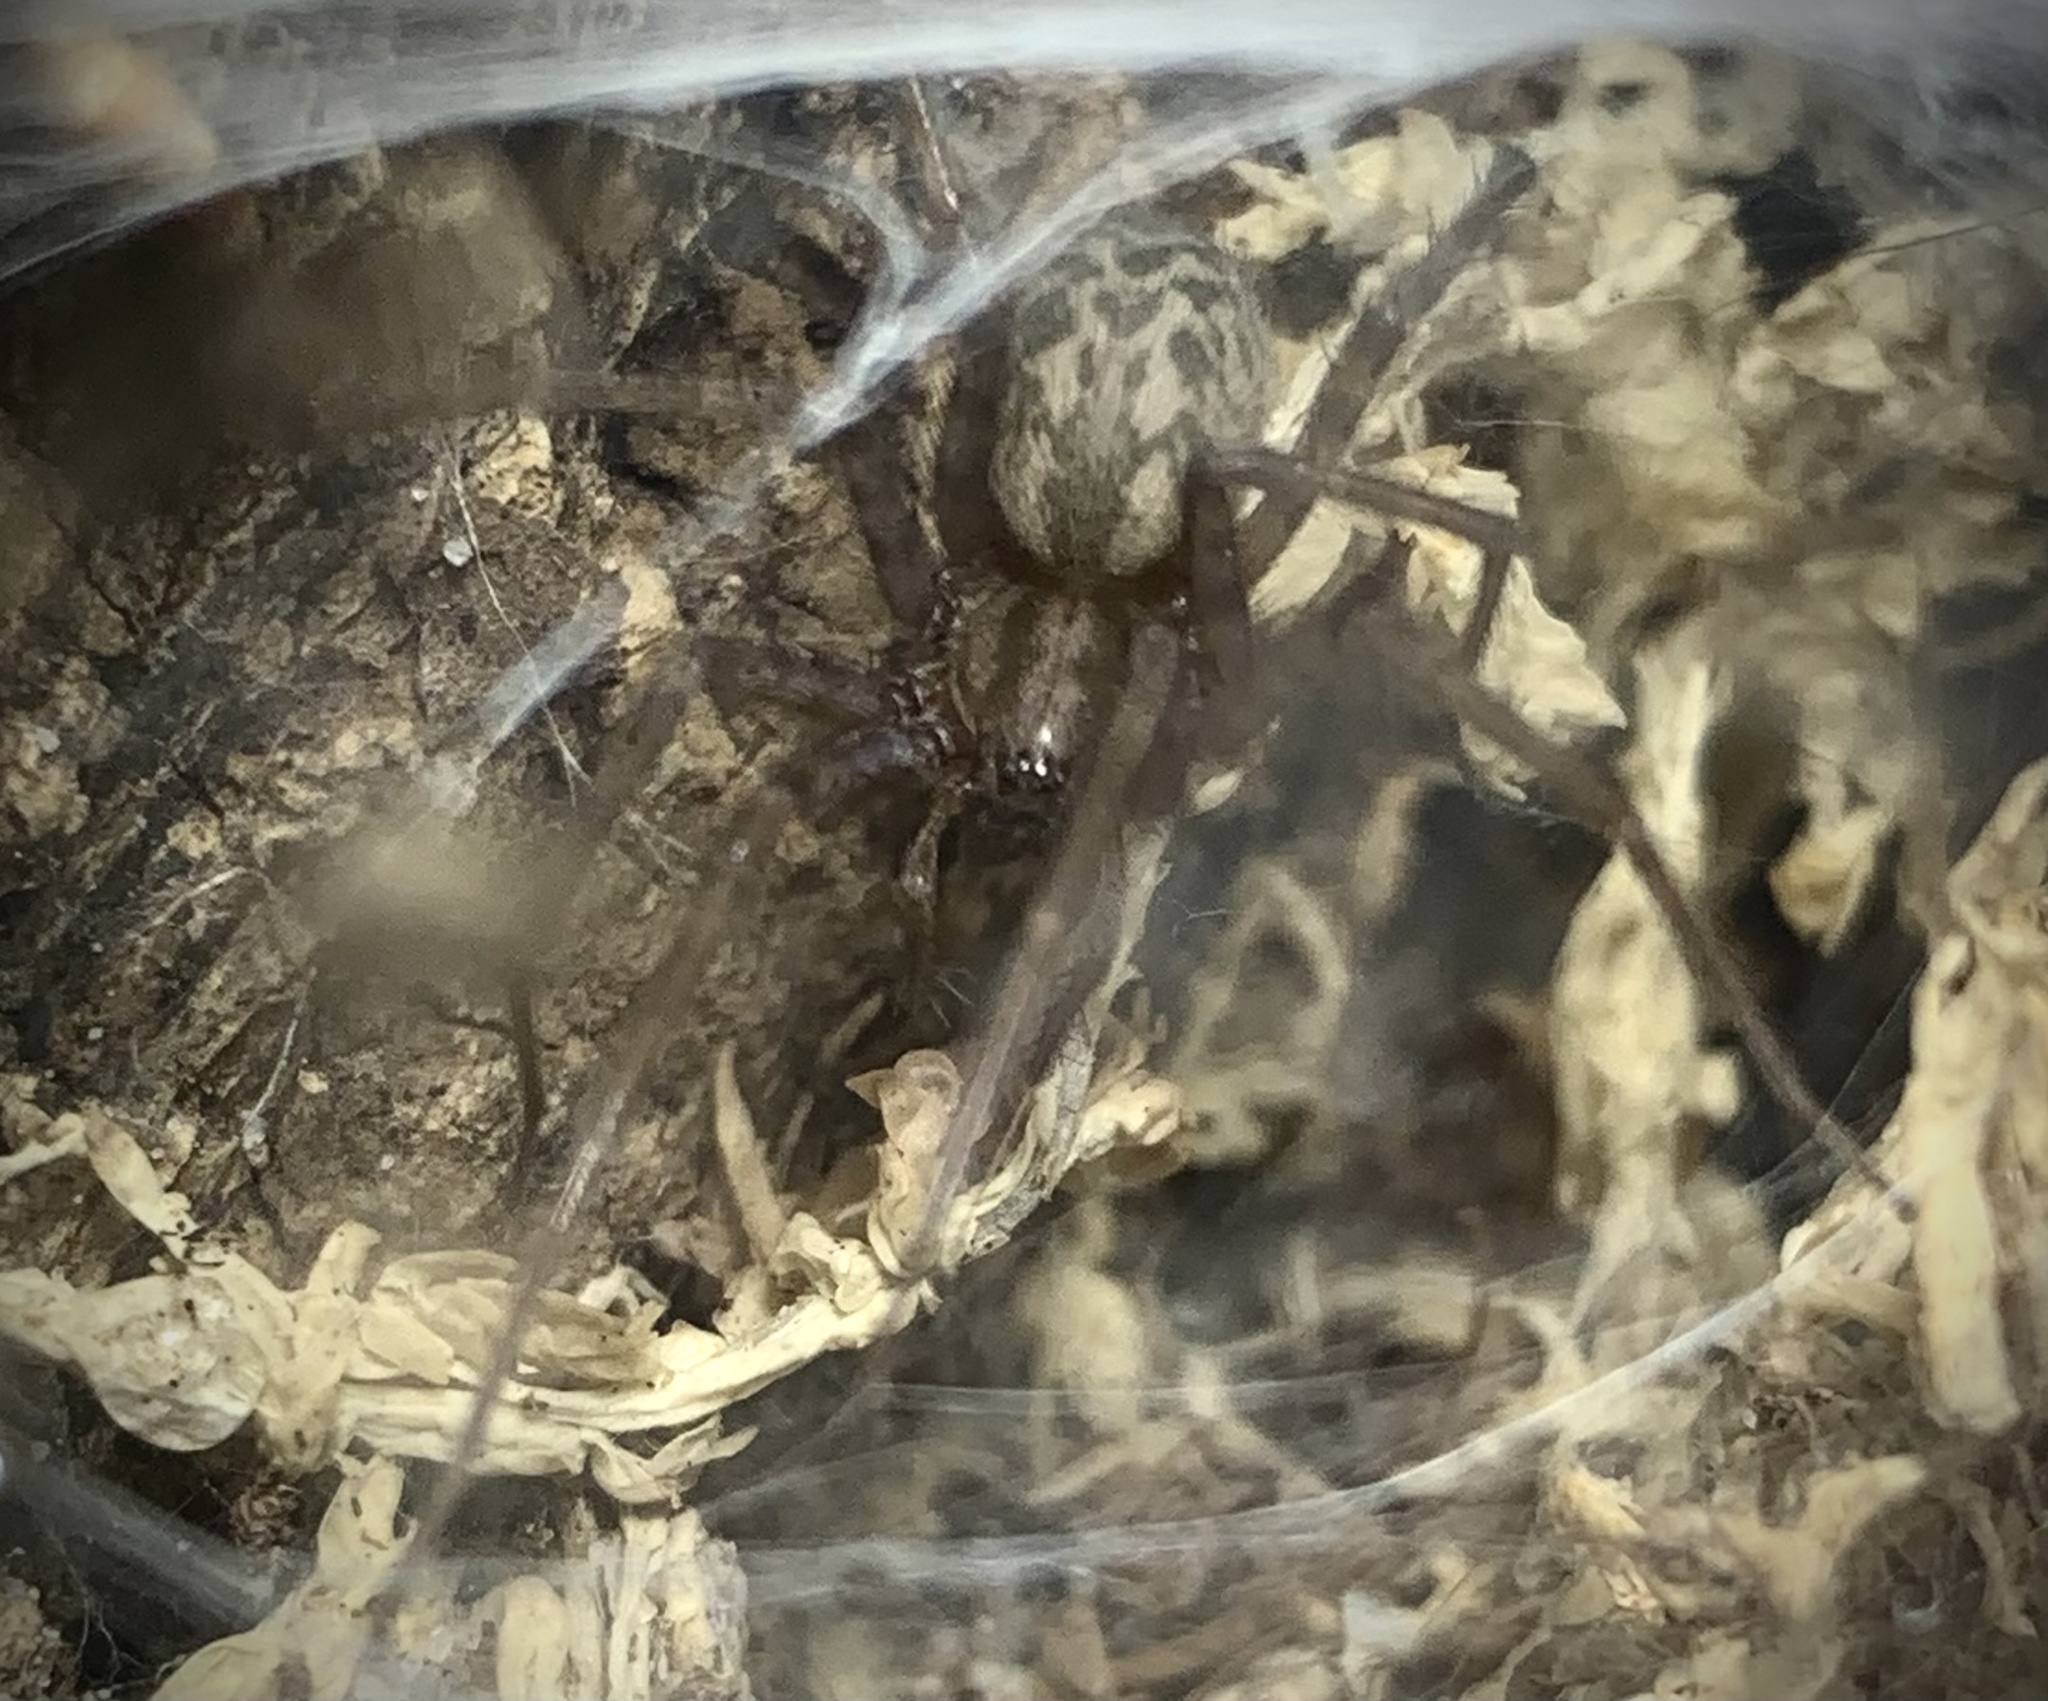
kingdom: Animalia
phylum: Arthropoda
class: Arachnida
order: Araneae
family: Agelenidae
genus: Tegenaria
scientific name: Tegenaria domestica
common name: Barn funnel weaver
